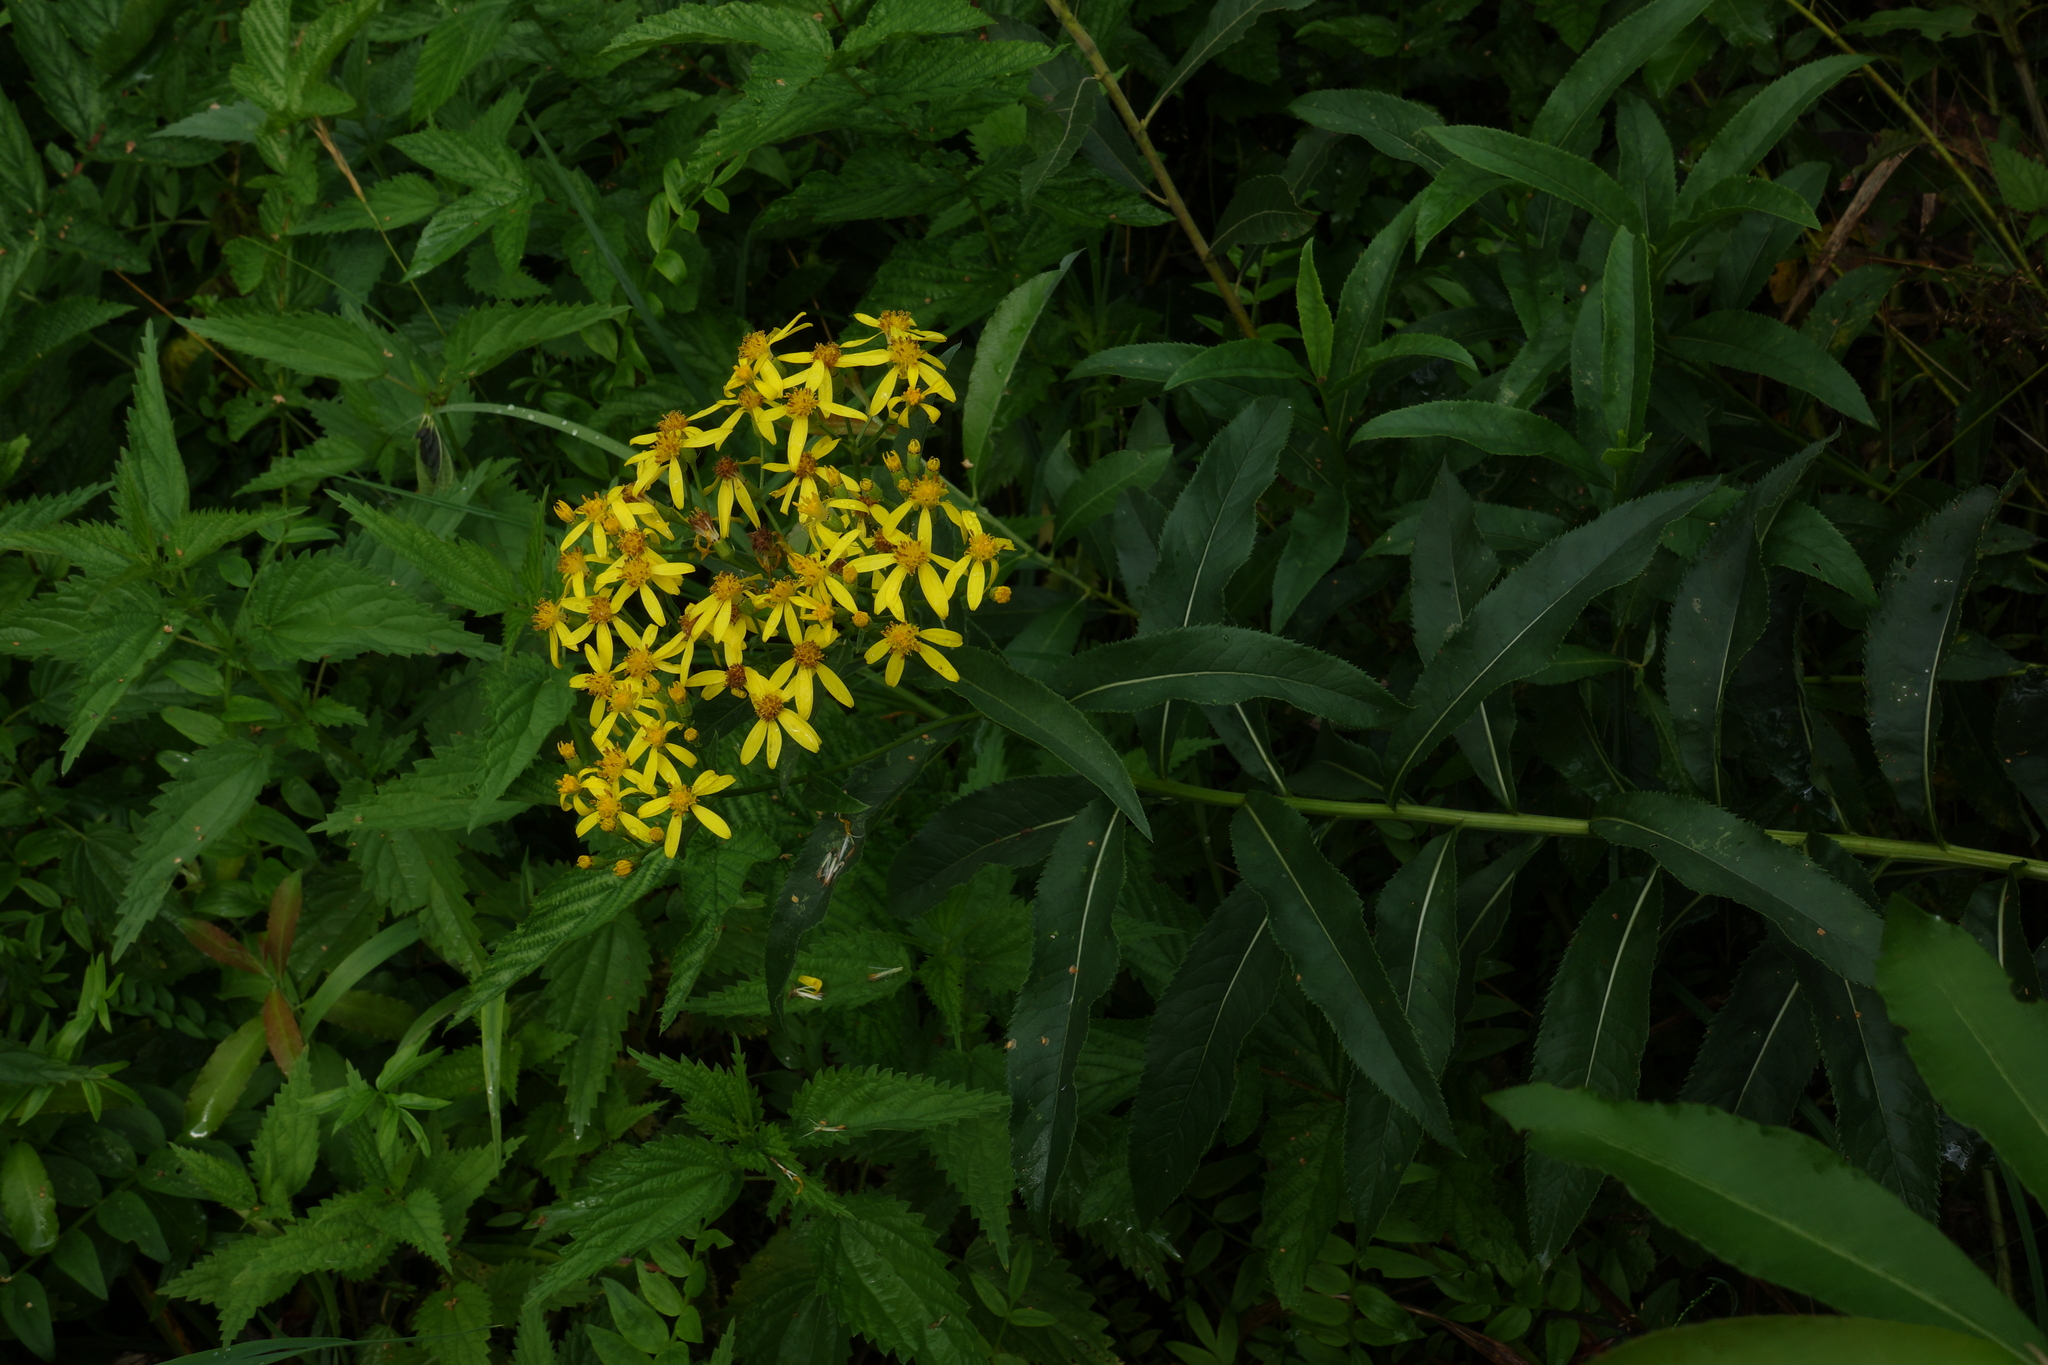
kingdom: Plantae
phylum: Tracheophyta
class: Magnoliopsida
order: Asterales
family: Asteraceae
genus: Senecio
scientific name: Senecio sarracenicus
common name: Broad-leaved ragwort
